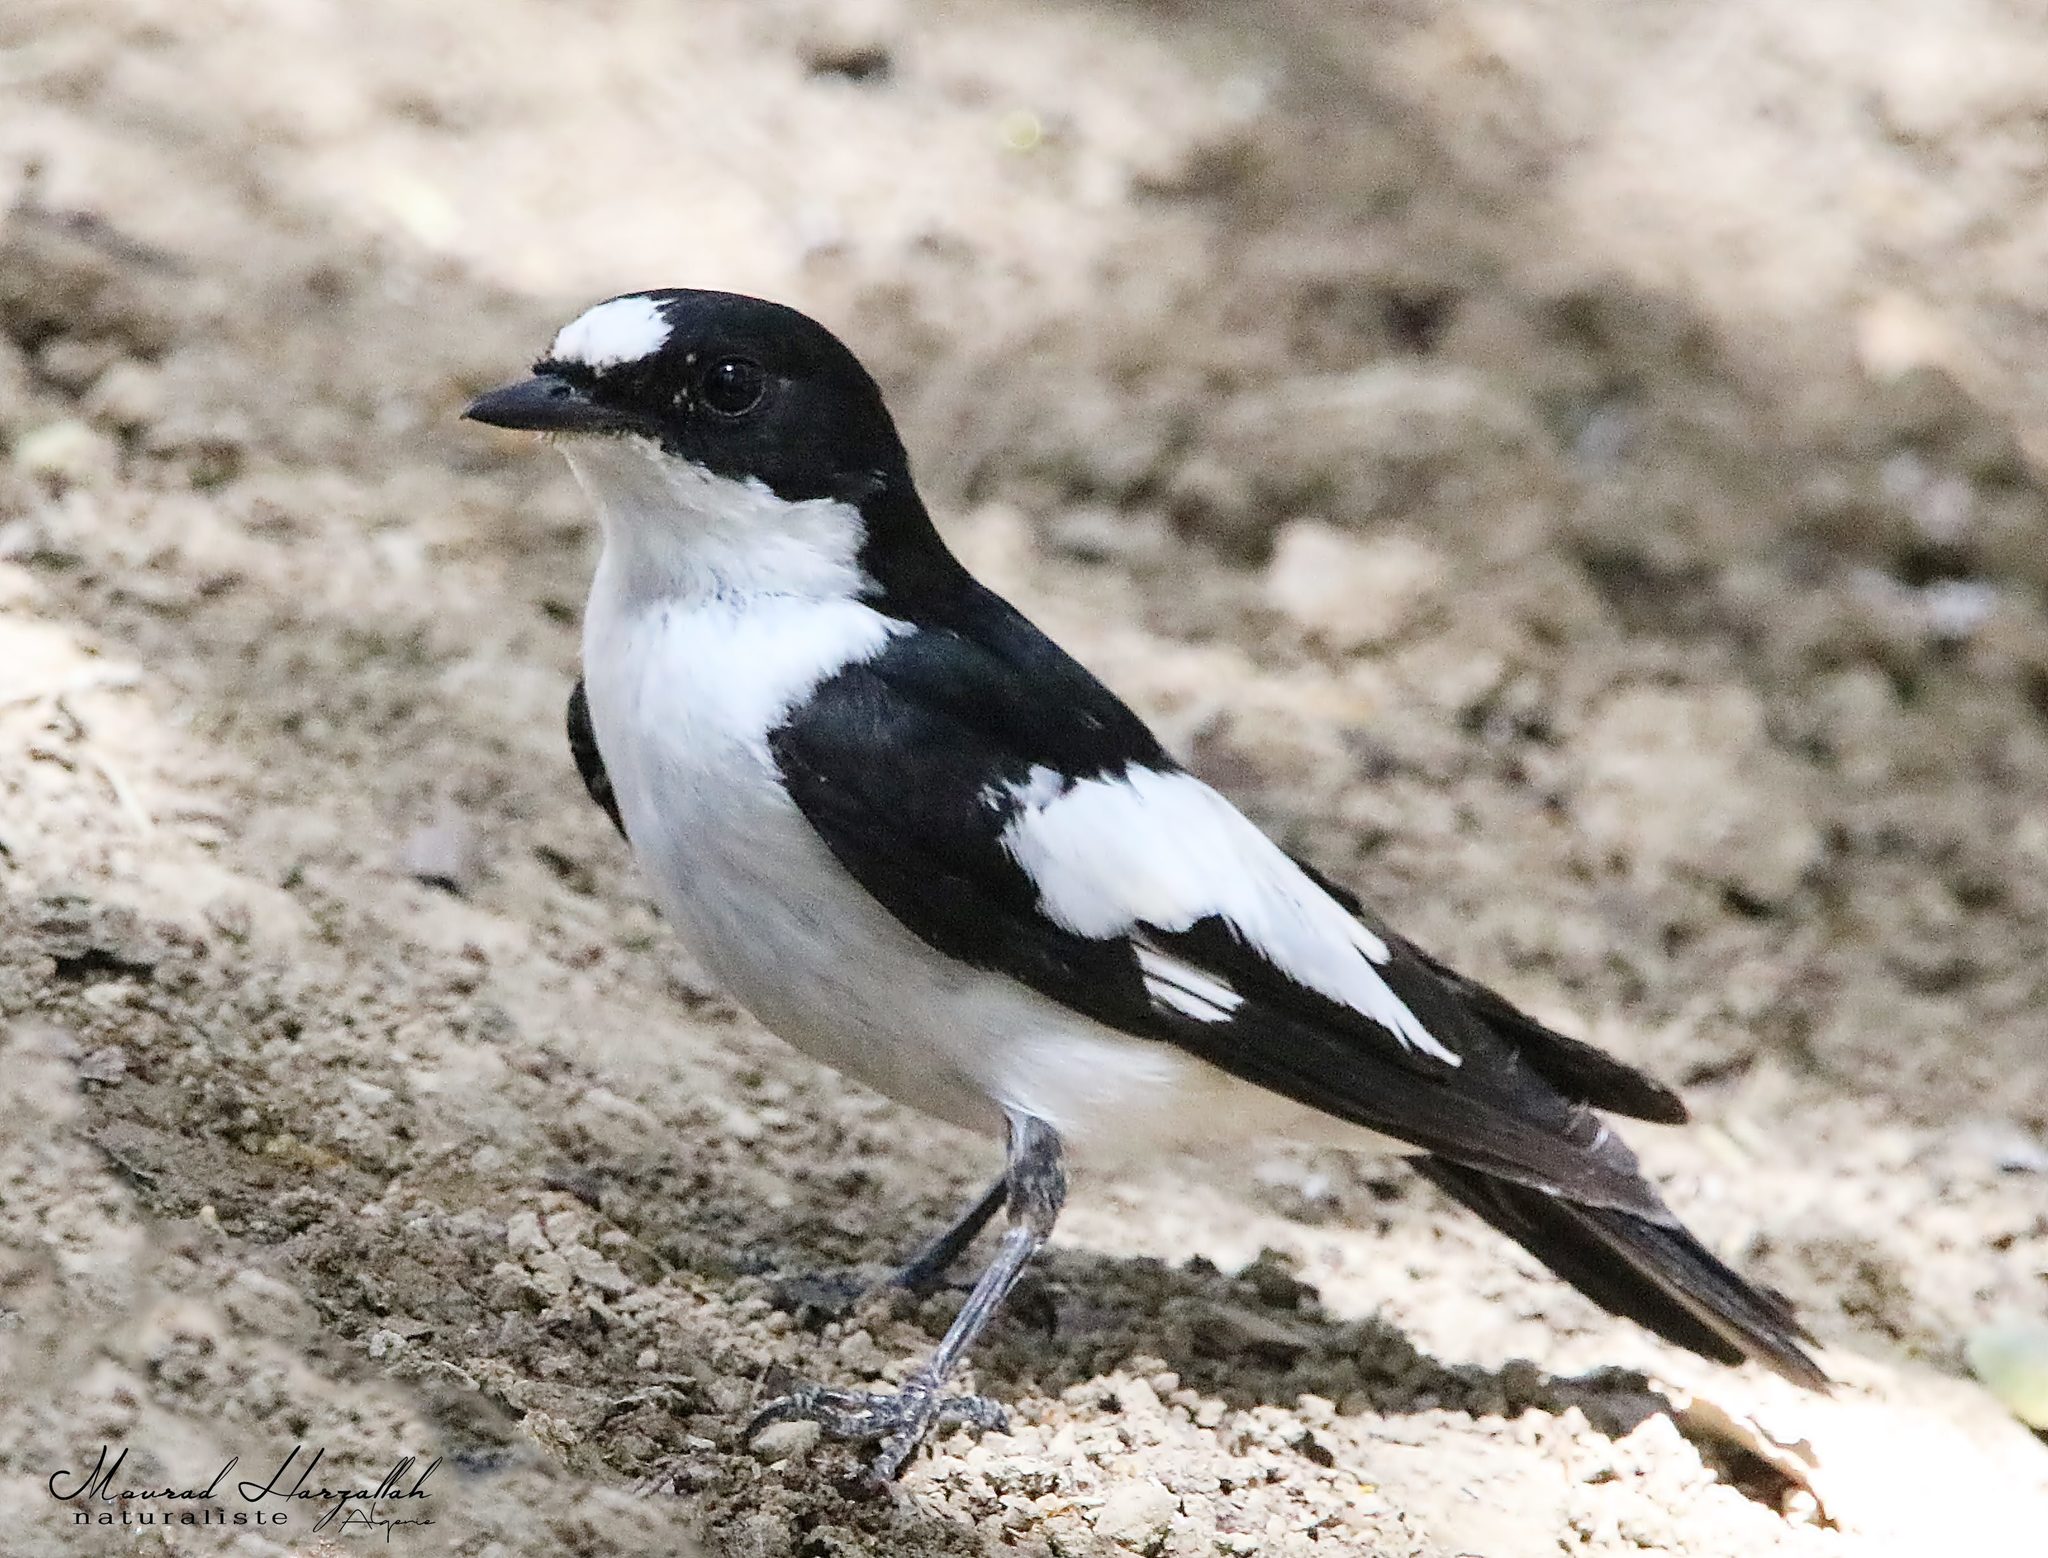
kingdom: Animalia
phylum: Chordata
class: Aves
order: Passeriformes
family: Muscicapidae
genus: Ficedula
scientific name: Ficedula speculigera
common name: Atlas pied flycatcher
